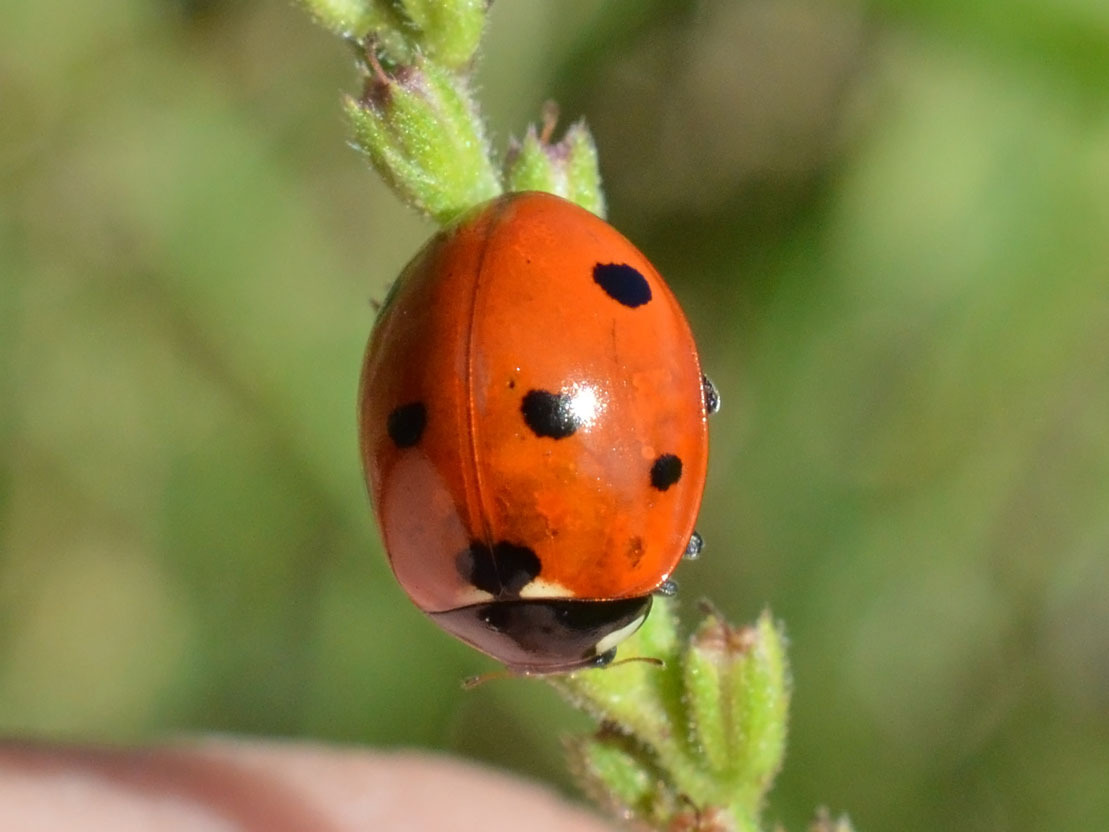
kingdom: Animalia
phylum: Arthropoda
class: Insecta
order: Coleoptera
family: Coccinellidae
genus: Coccinella
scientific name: Coccinella septempunctata
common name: Sevenspotted lady beetle
